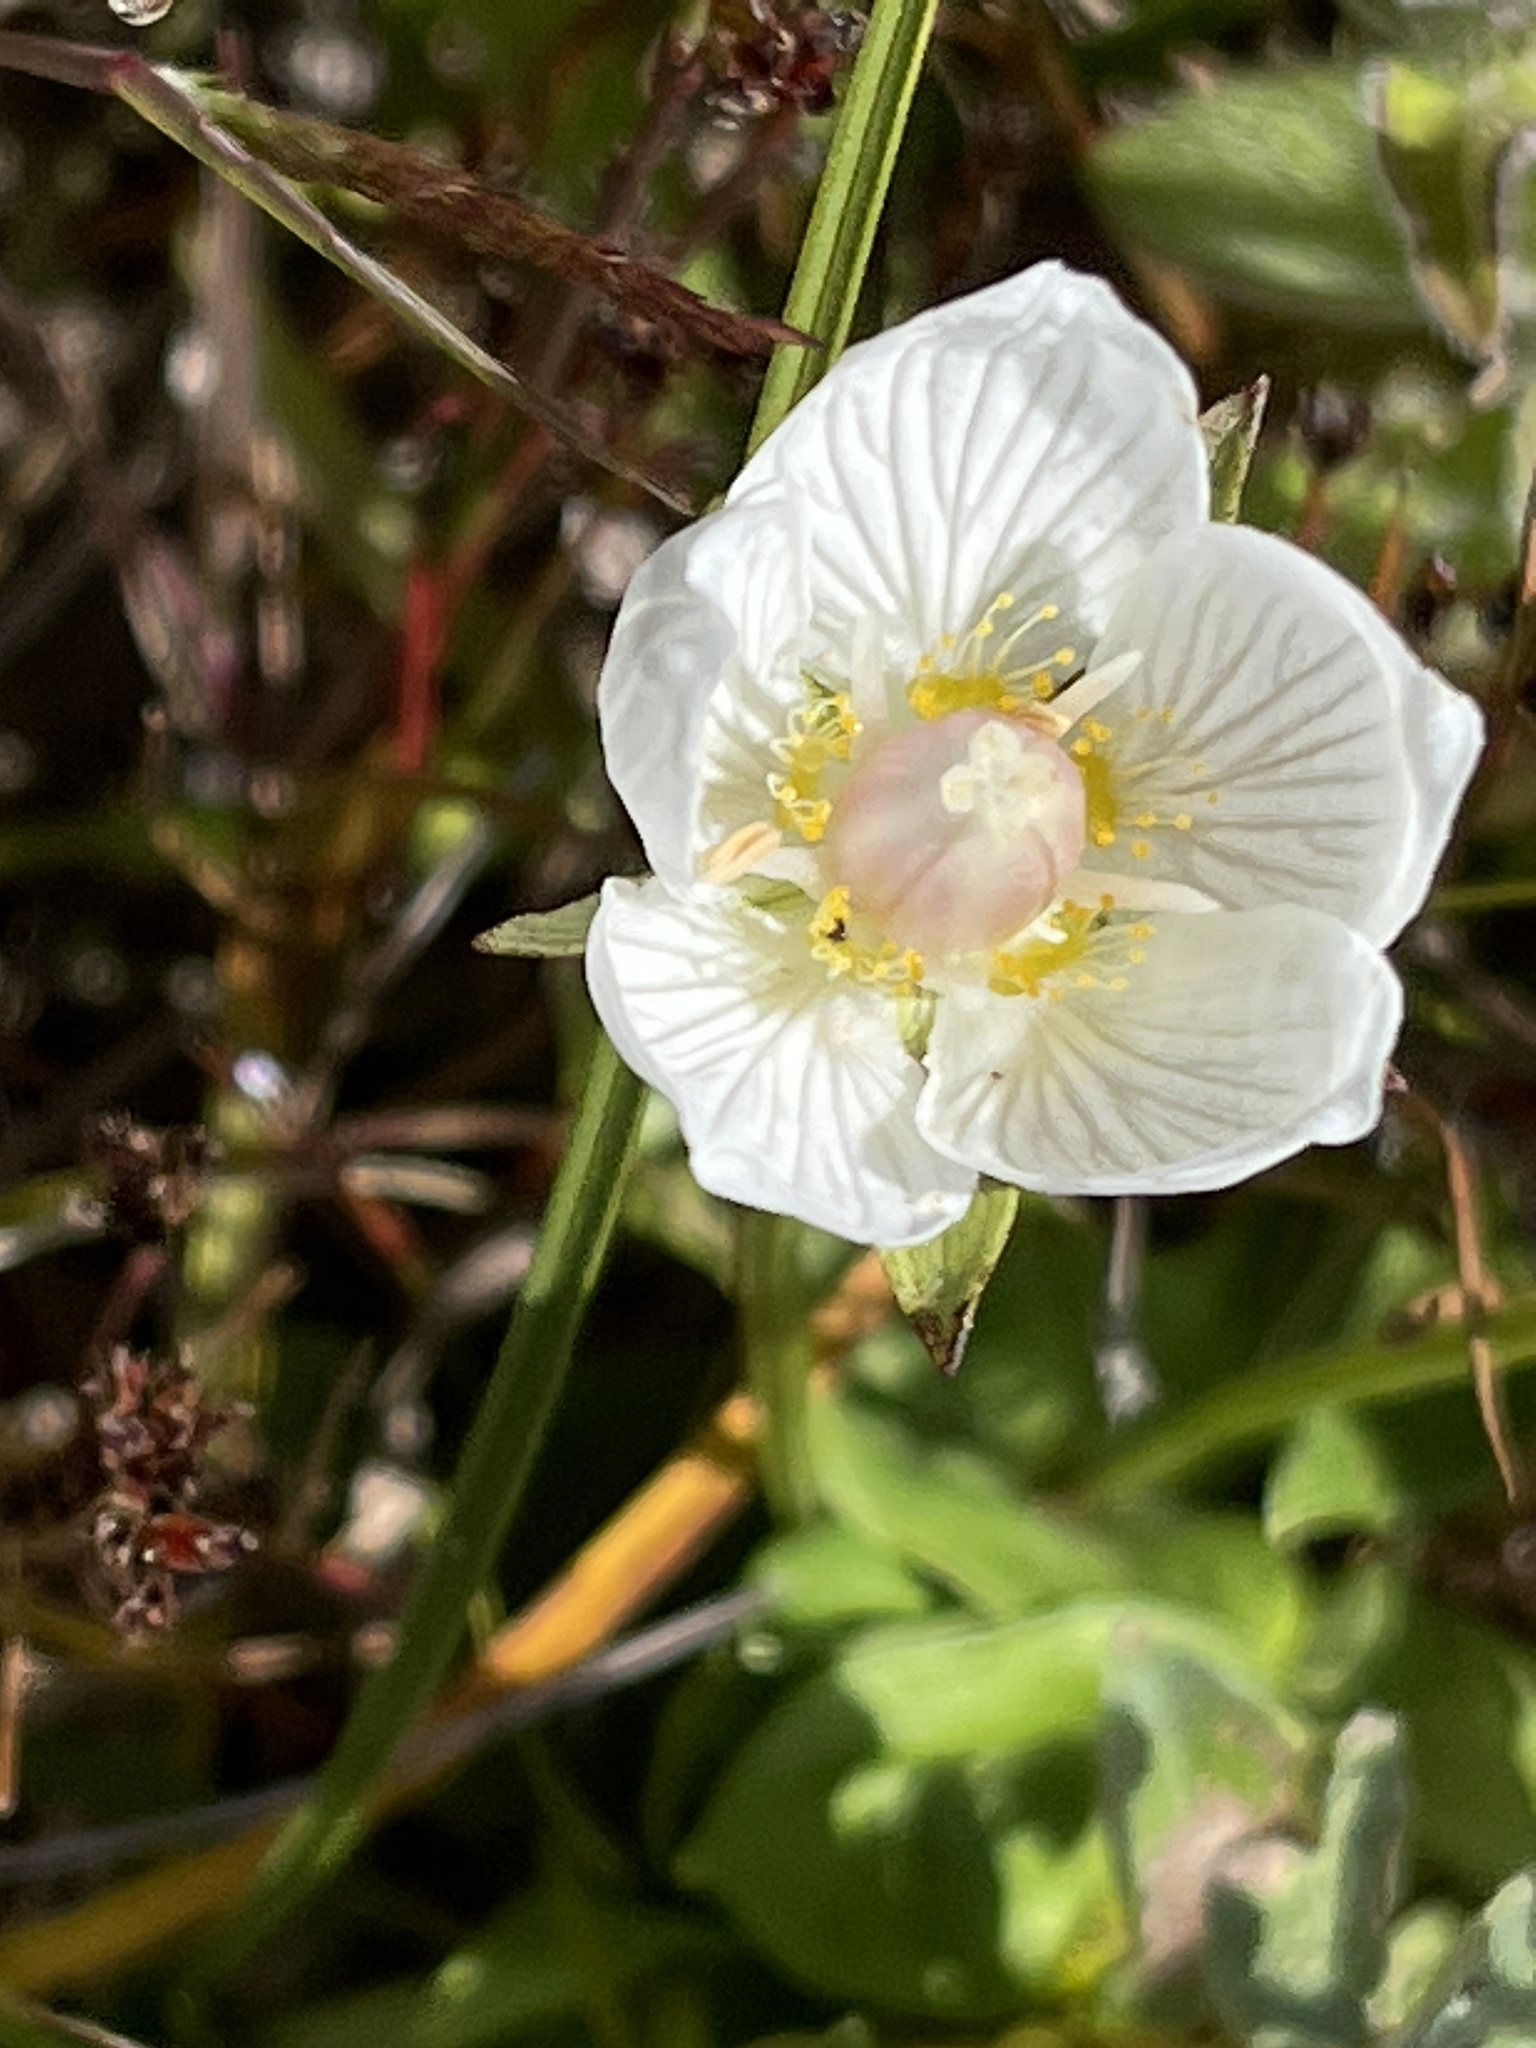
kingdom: Plantae
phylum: Tracheophyta
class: Magnoliopsida
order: Celastrales
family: Parnassiaceae
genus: Parnassia
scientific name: Parnassia palustris
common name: Grass-of-parnassus
